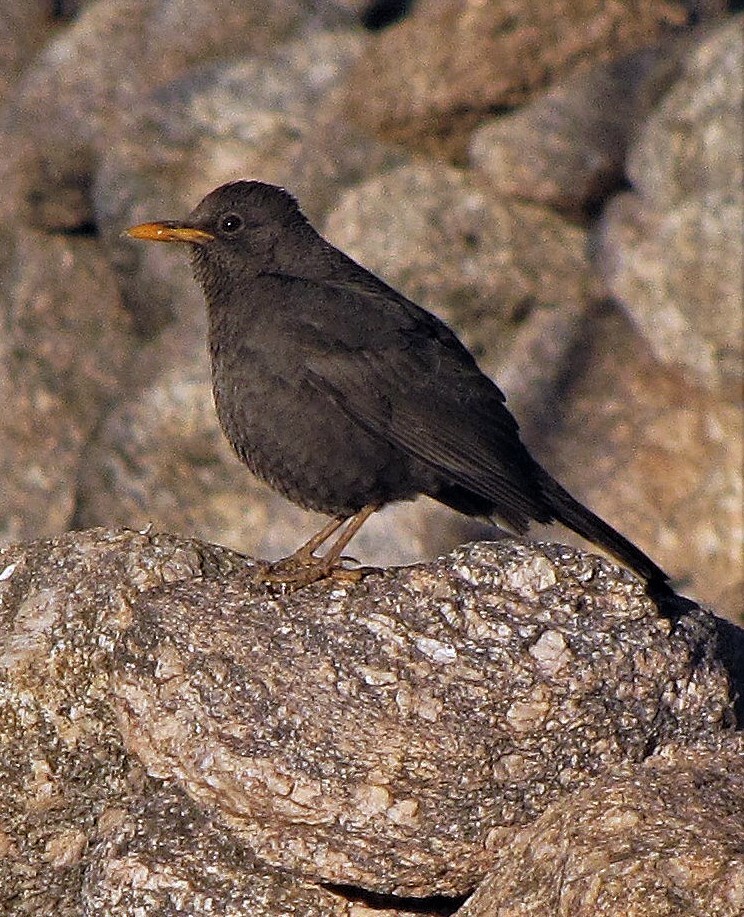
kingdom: Animalia
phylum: Chordata
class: Aves
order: Passeriformes
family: Turdidae
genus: Turdus
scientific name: Turdus chiguanco
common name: Chiguanco thrush
